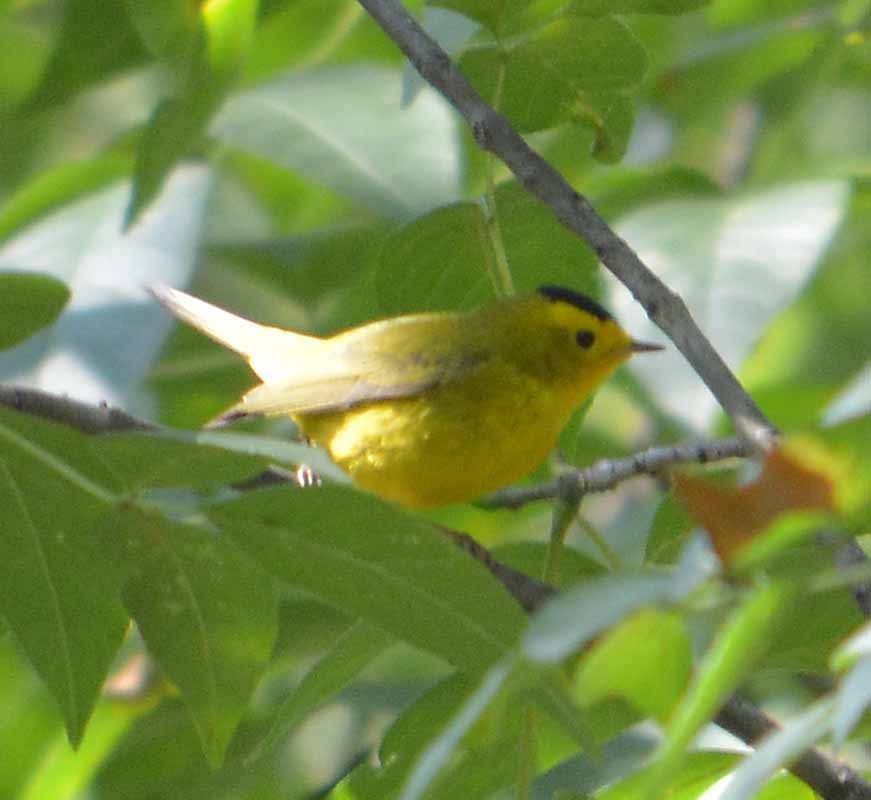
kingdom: Animalia
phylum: Chordata
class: Aves
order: Passeriformes
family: Parulidae
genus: Cardellina
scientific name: Cardellina pusilla
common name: Wilson's warbler
